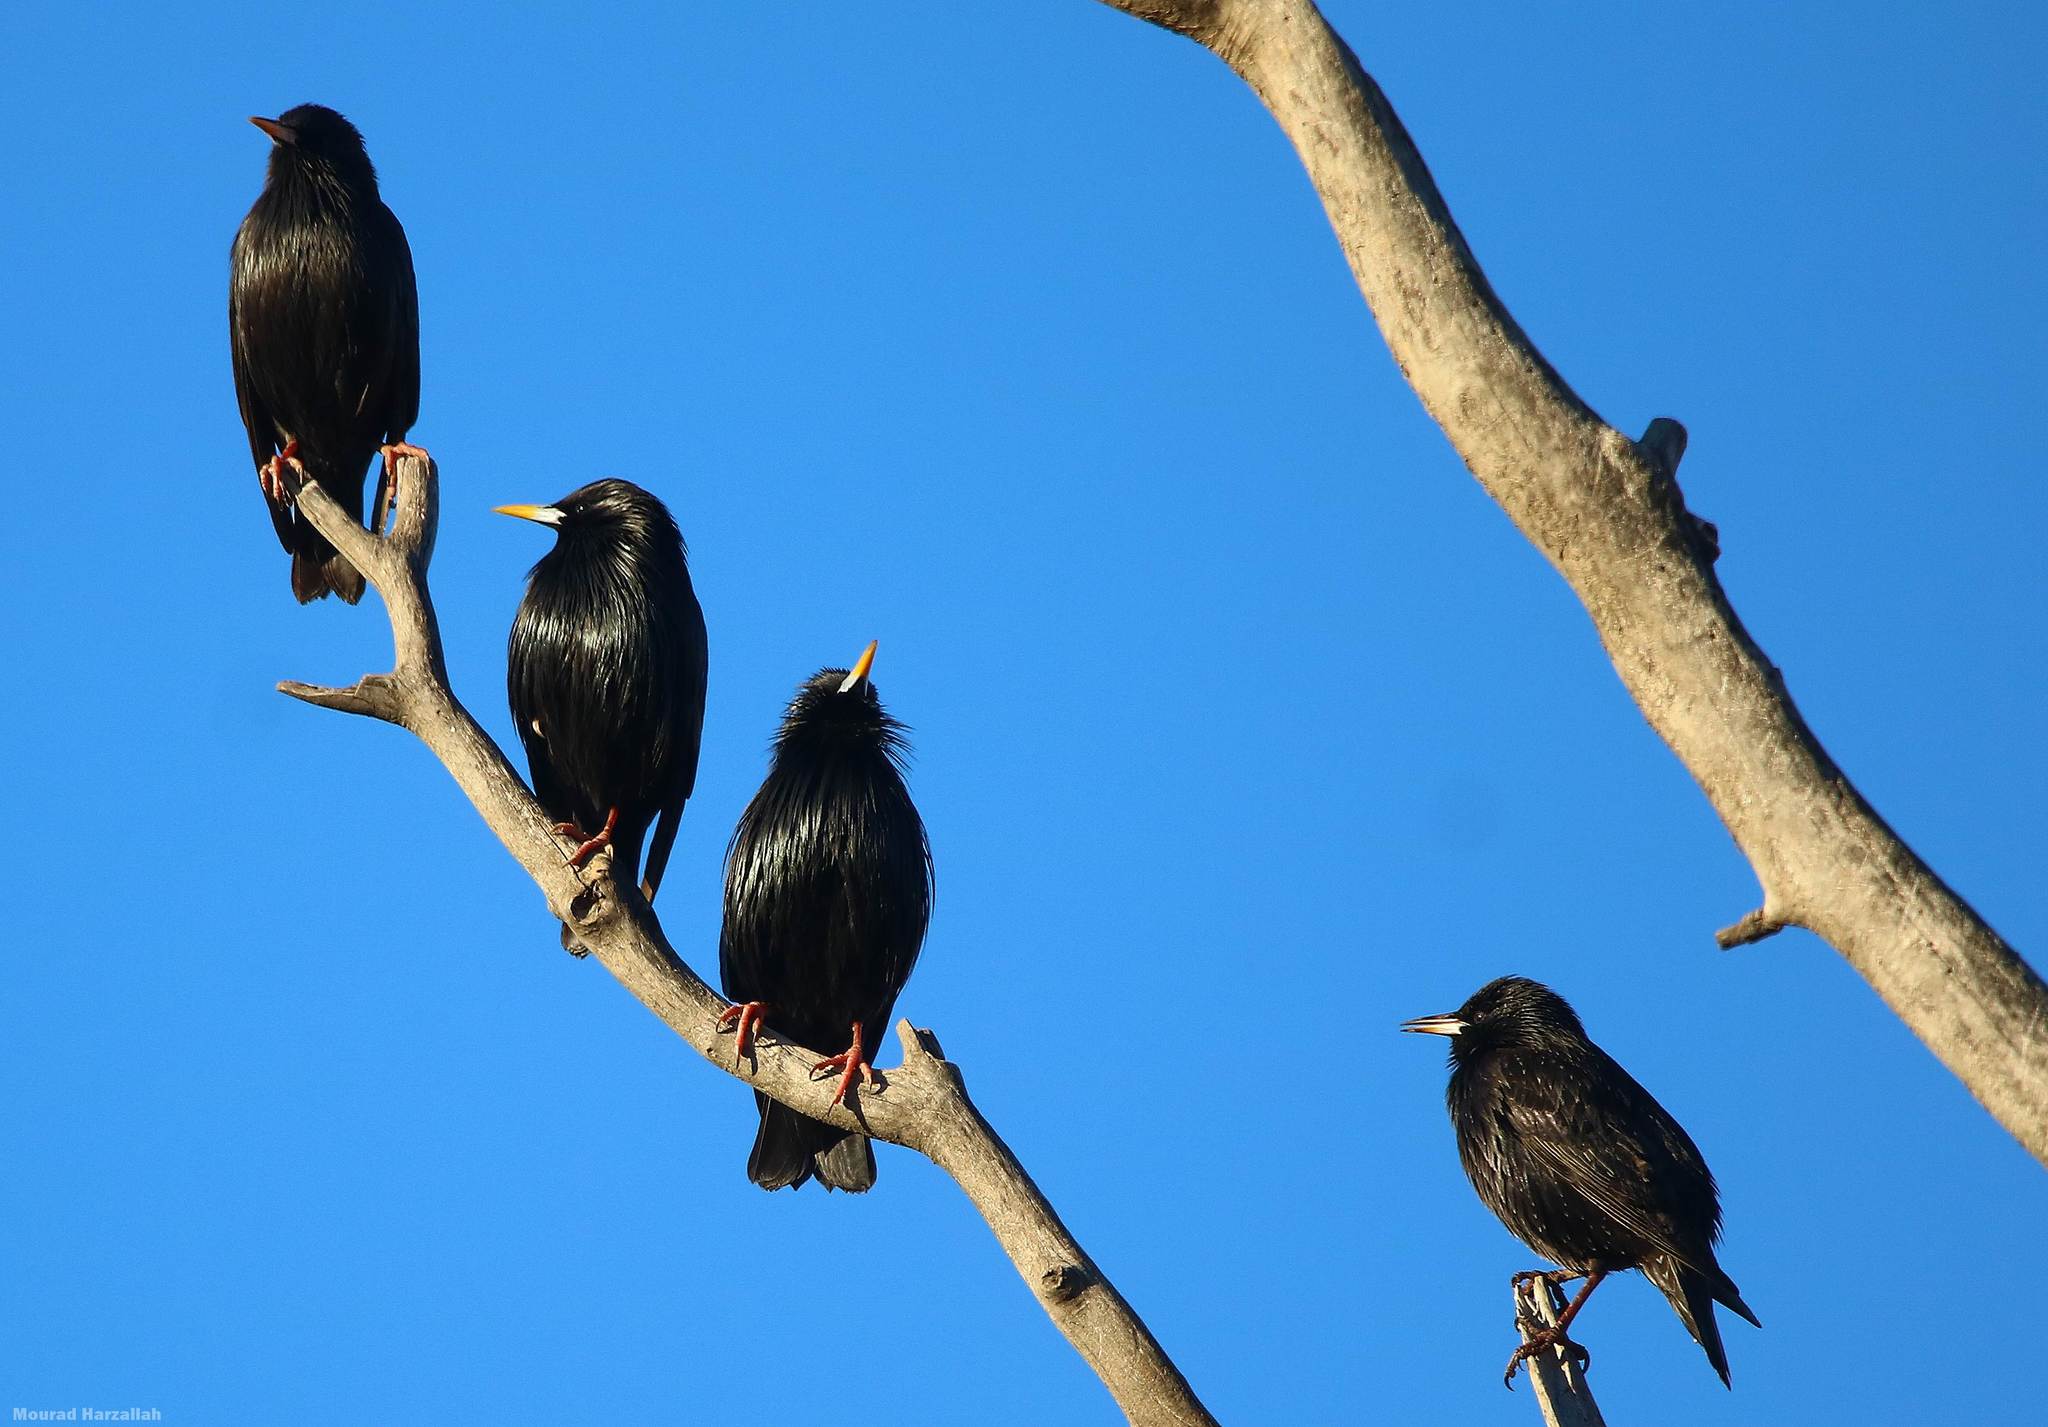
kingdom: Animalia
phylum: Chordata
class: Aves
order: Passeriformes
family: Sturnidae
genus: Sturnus
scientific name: Sturnus unicolor
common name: Spotless starling
